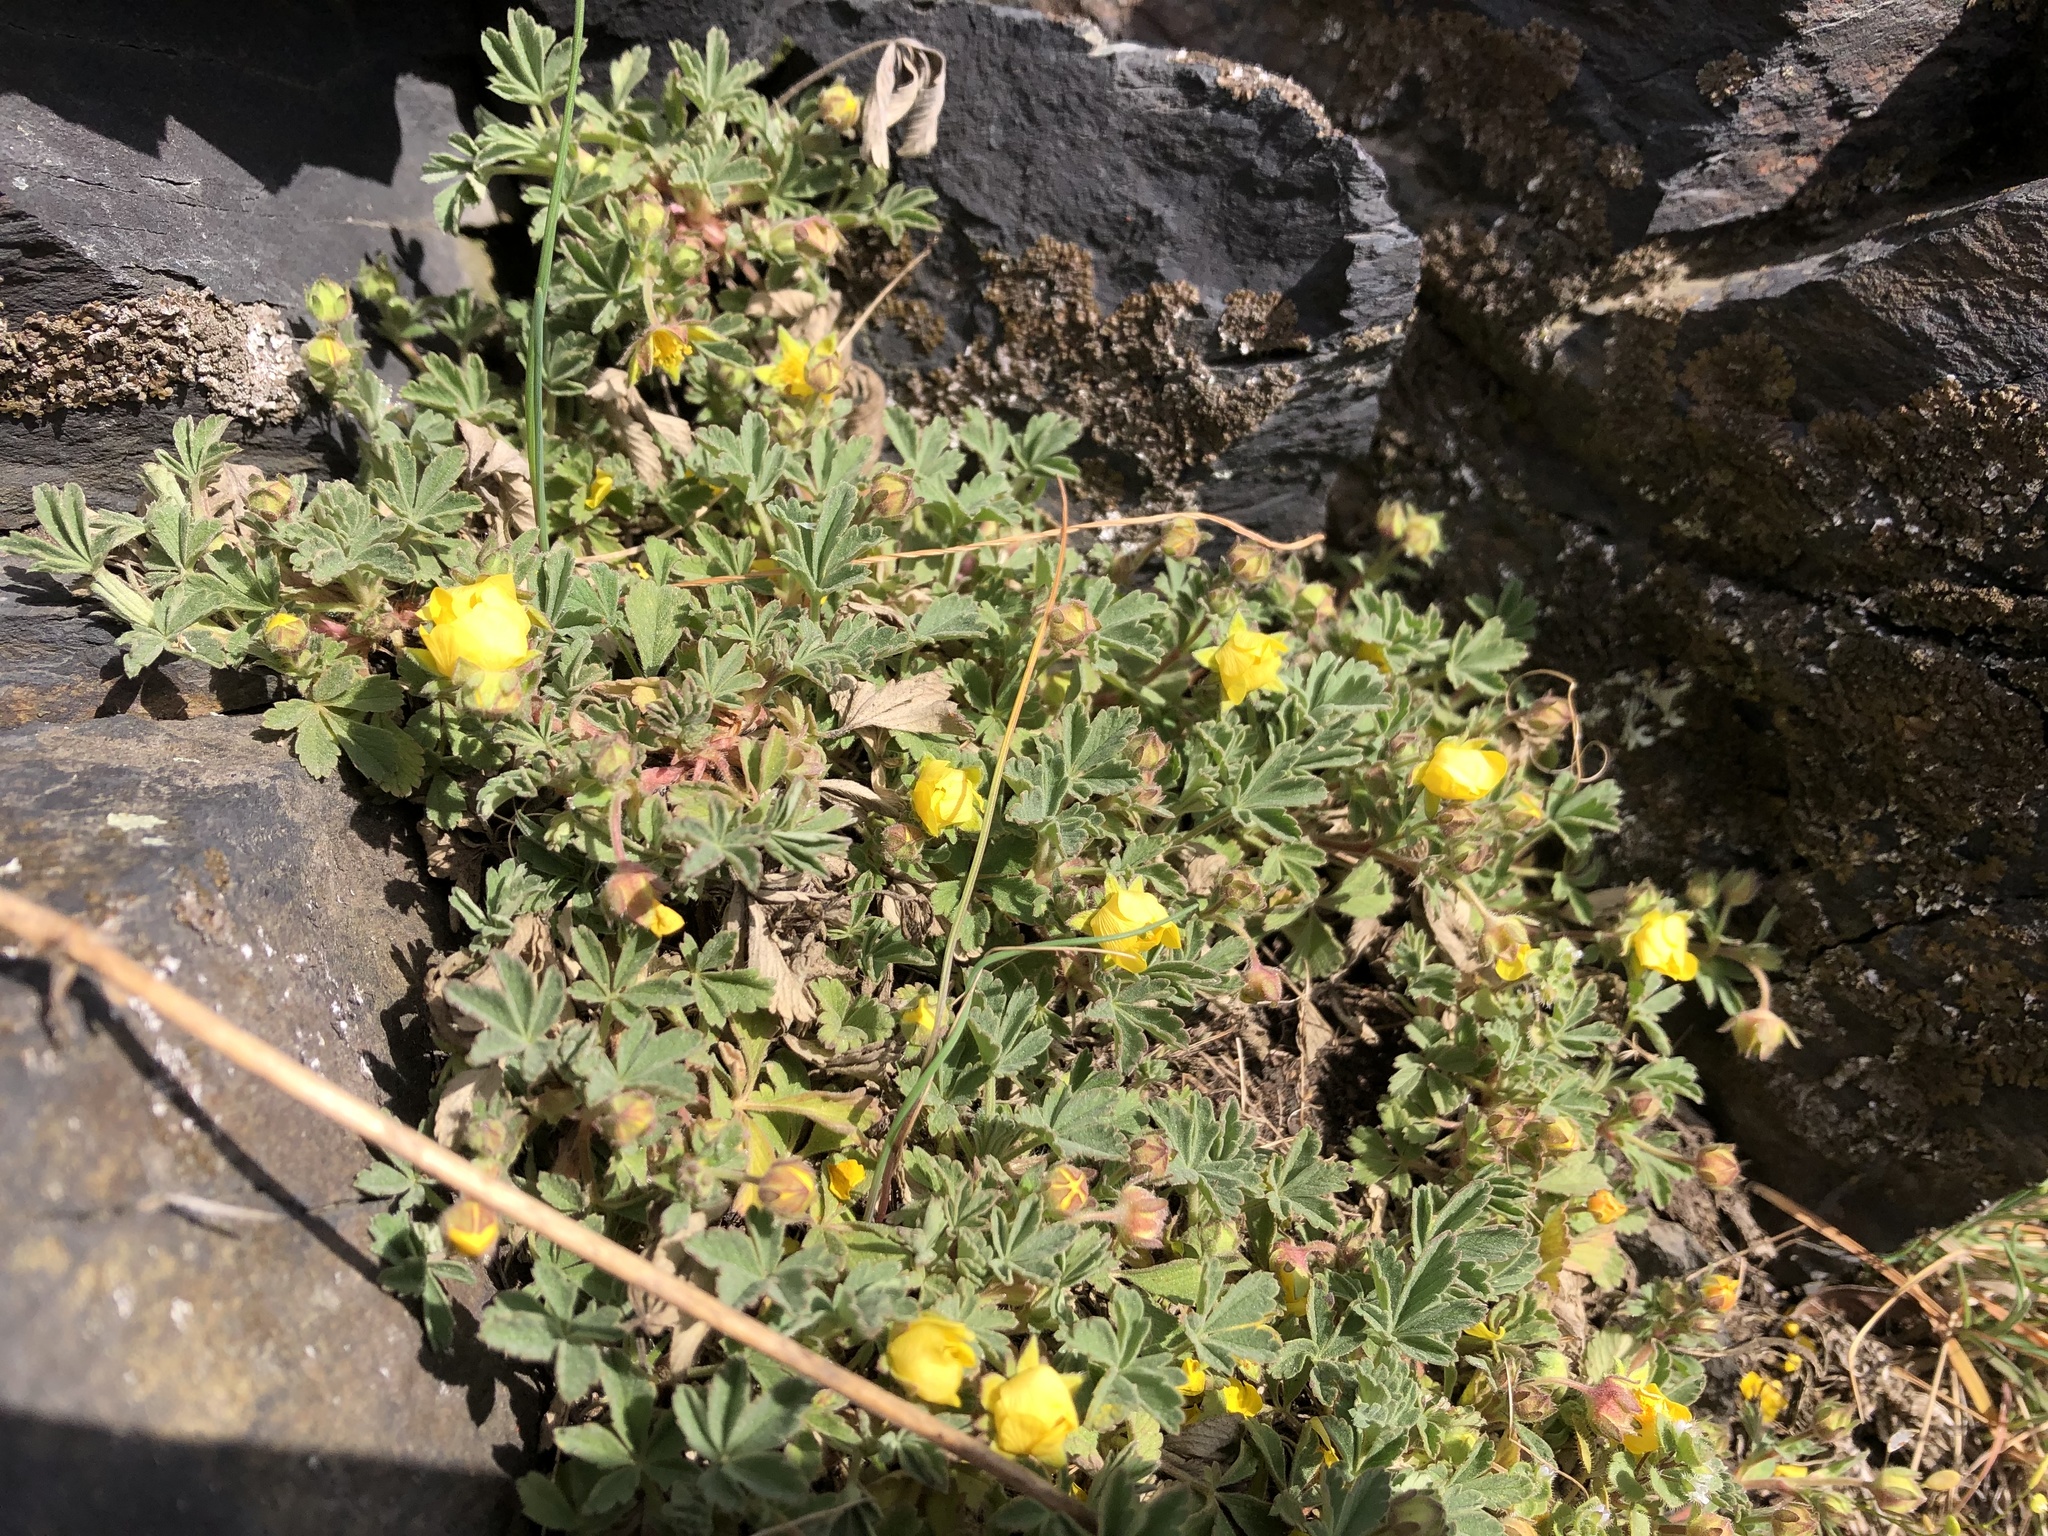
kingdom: Plantae
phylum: Tracheophyta
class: Magnoliopsida
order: Rosales
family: Rosaceae
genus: Potentilla
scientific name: Potentilla incana
